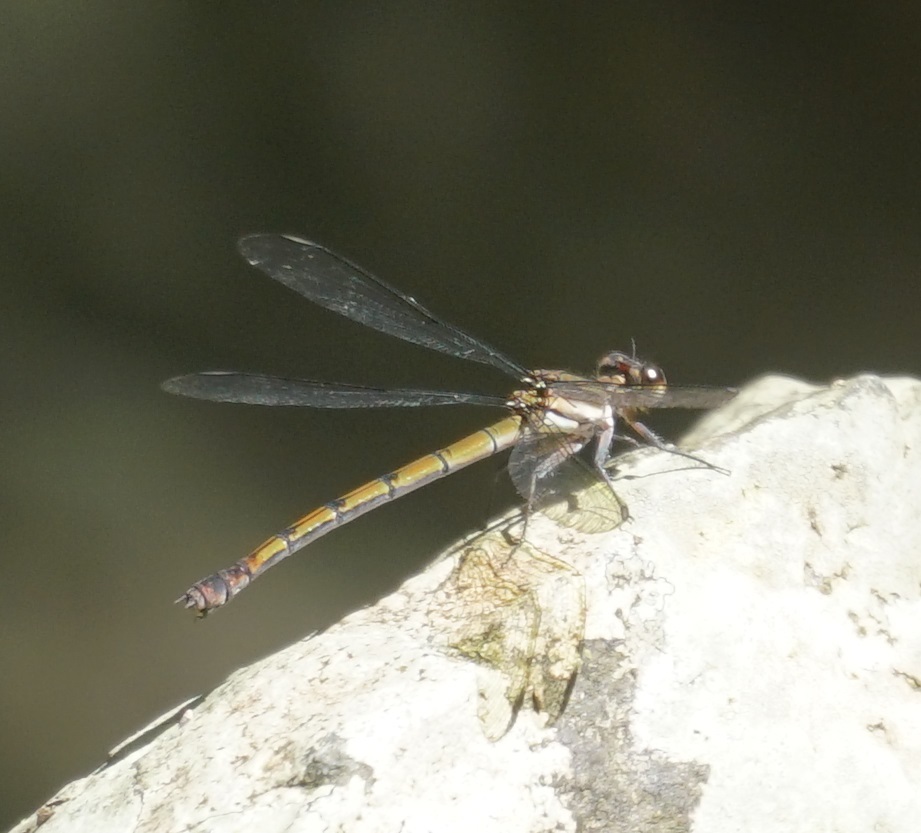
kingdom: Animalia
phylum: Arthropoda
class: Insecta
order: Odonata
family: Lestoideidae
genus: Diphlebia
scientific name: Diphlebia euphoeoides
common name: Tropical rockmaster
